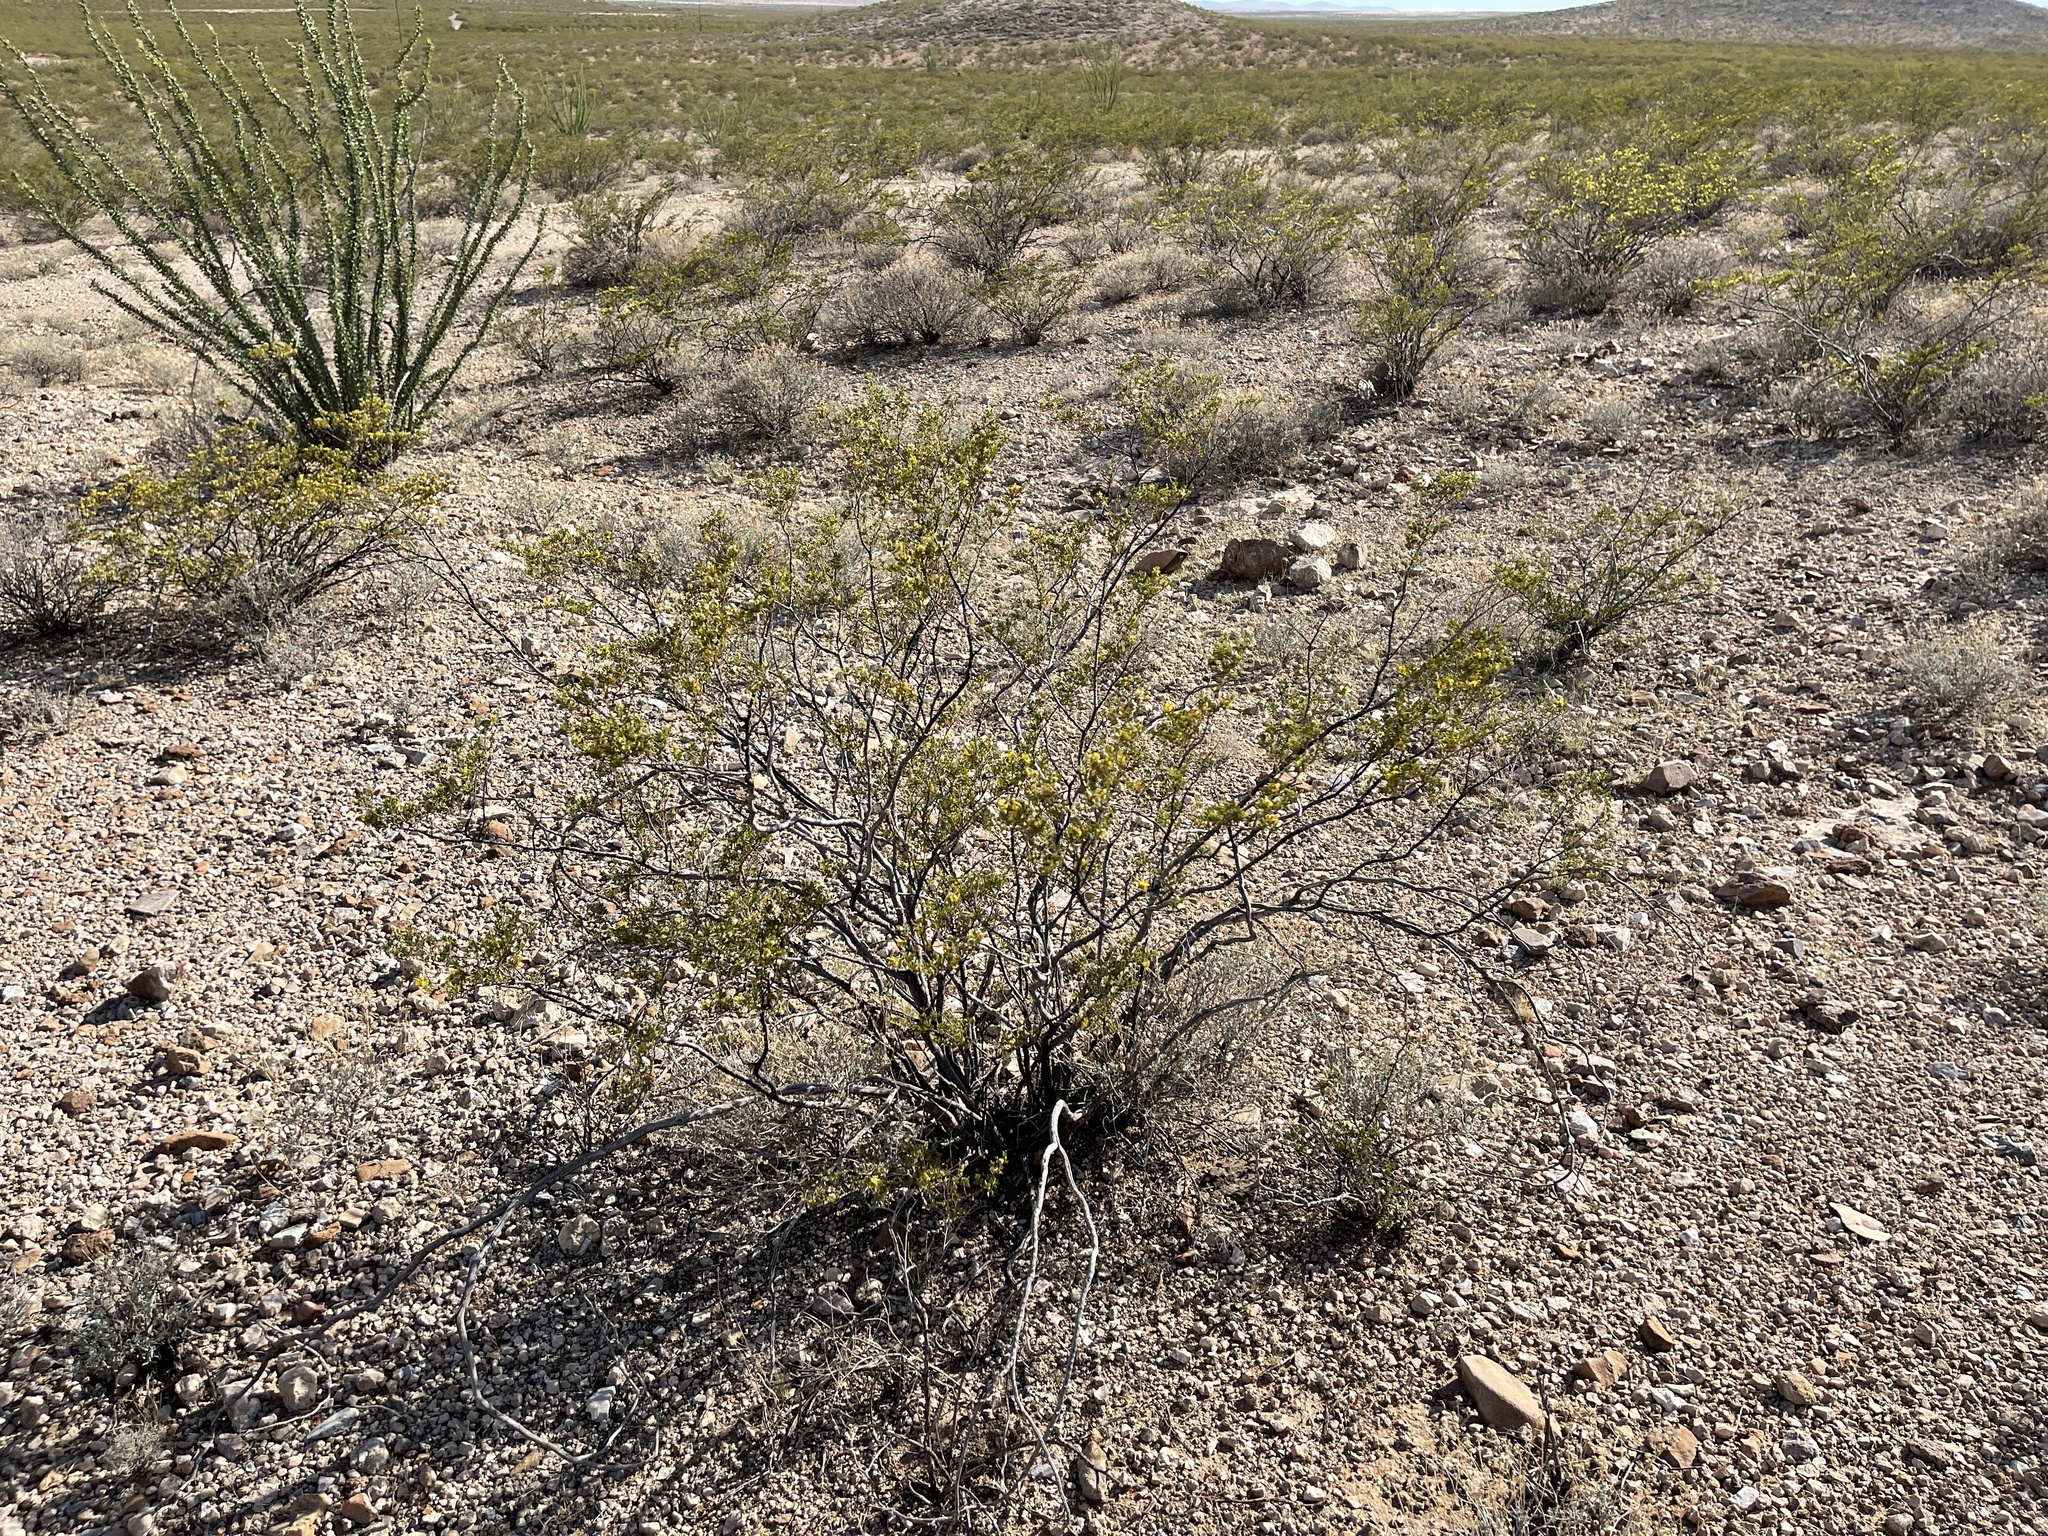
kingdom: Plantae
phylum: Tracheophyta
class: Magnoliopsida
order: Zygophyllales
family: Zygophyllaceae
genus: Larrea
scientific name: Larrea tridentata
